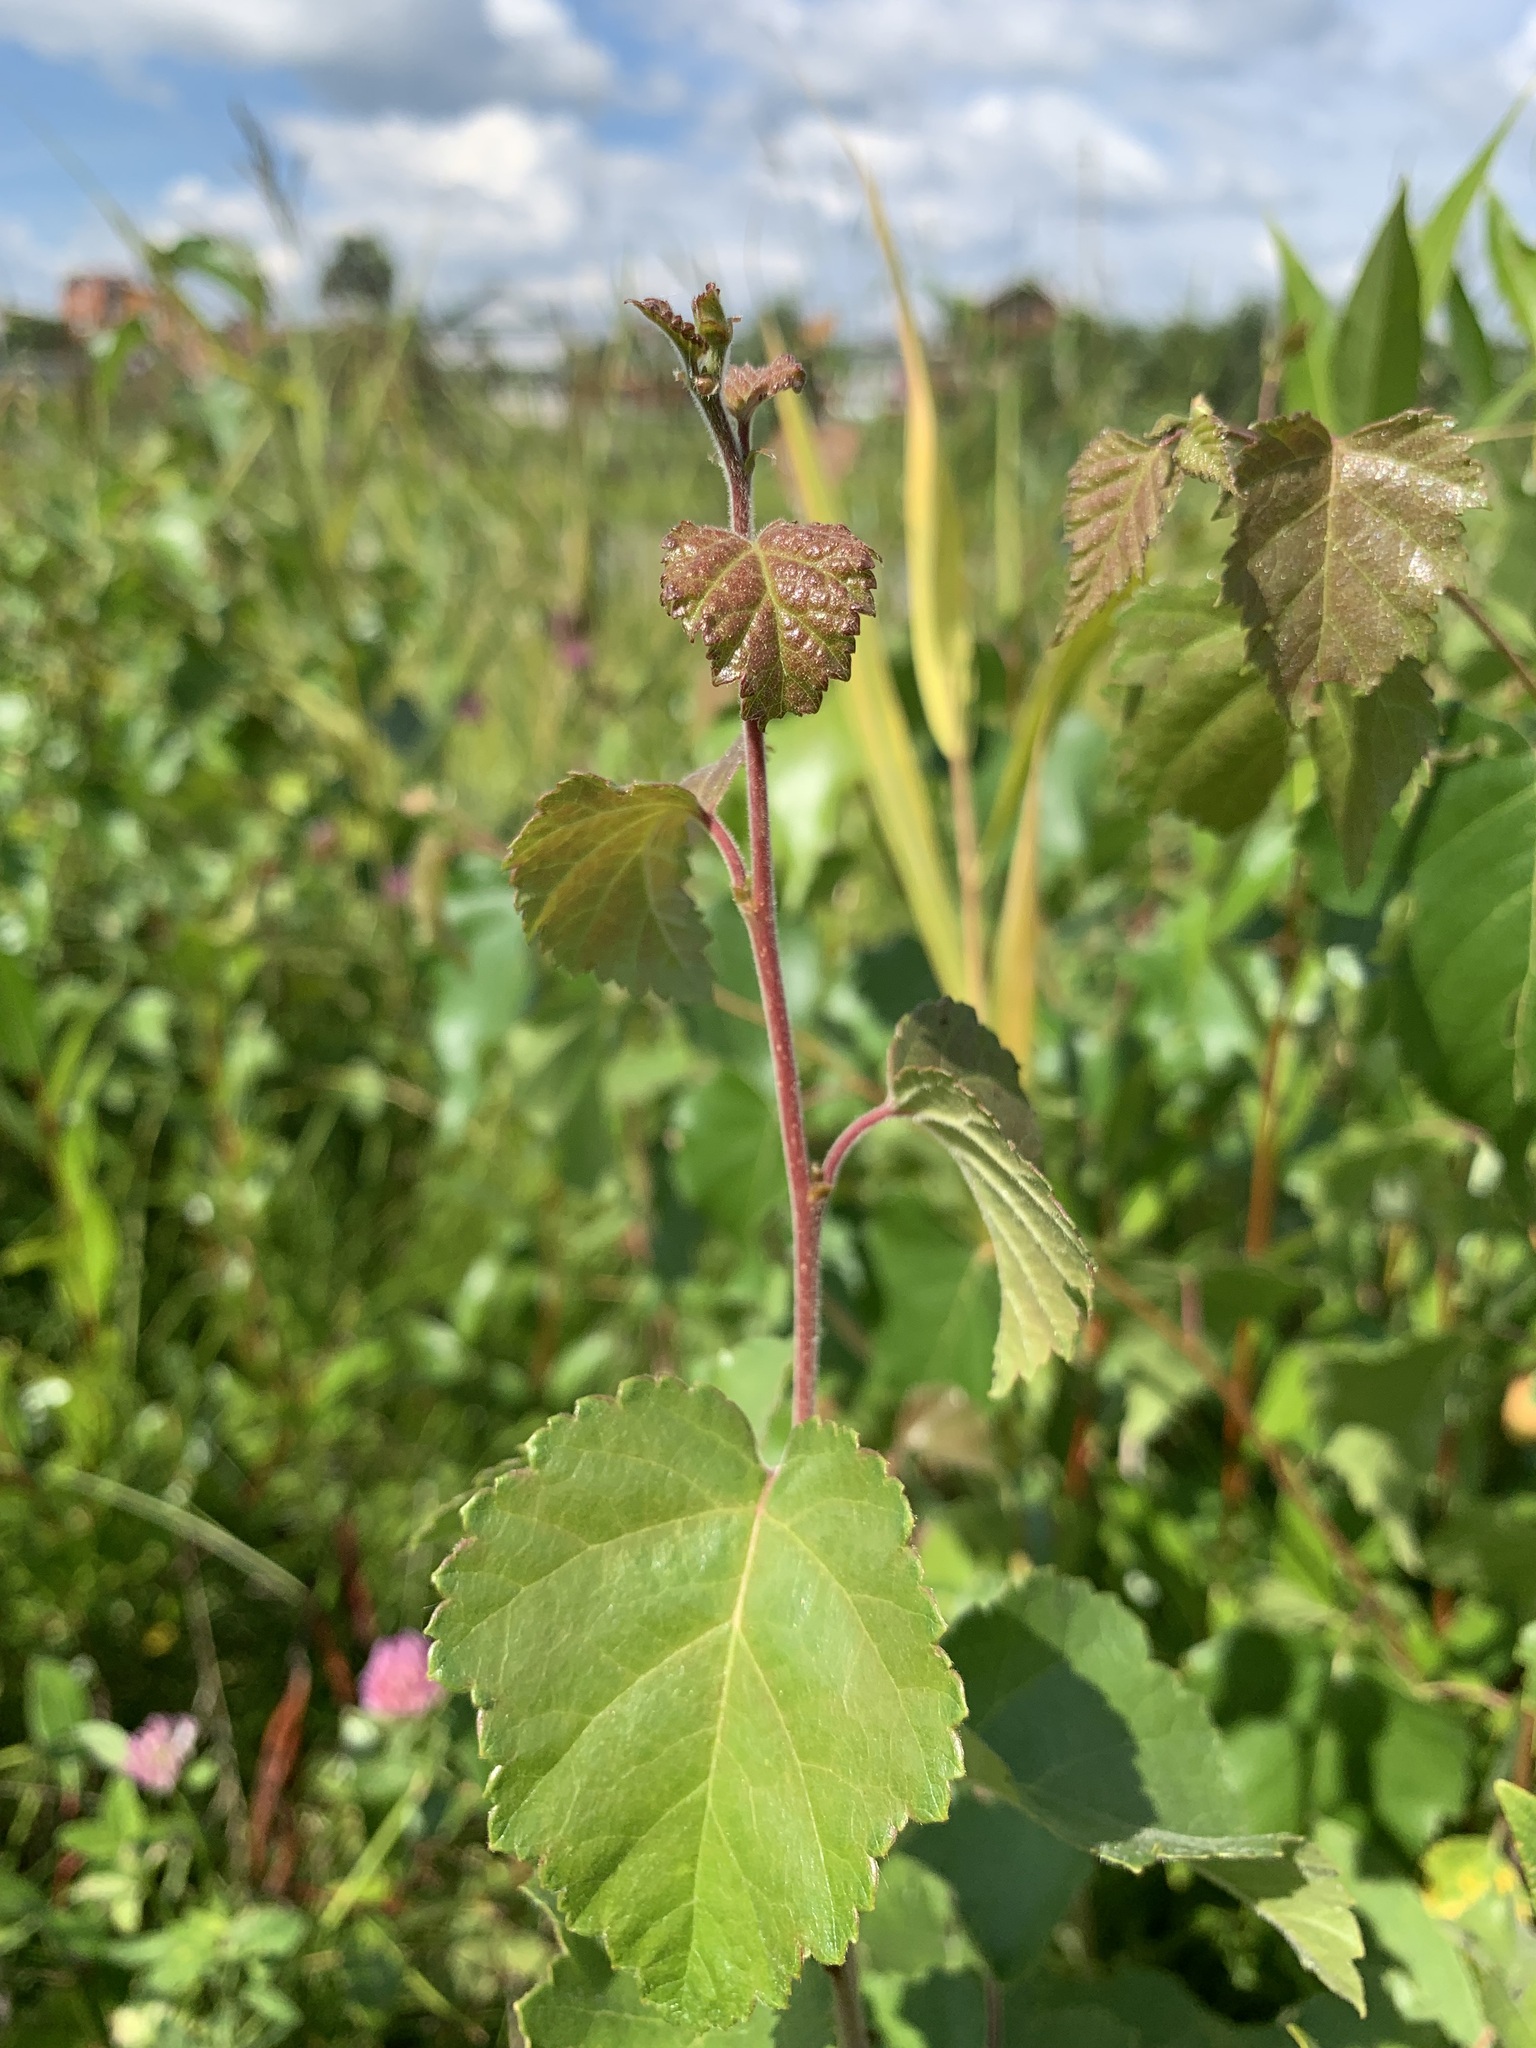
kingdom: Plantae
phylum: Tracheophyta
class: Magnoliopsida
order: Fagales
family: Betulaceae
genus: Betula
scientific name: Betula pubescens
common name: Downy birch
